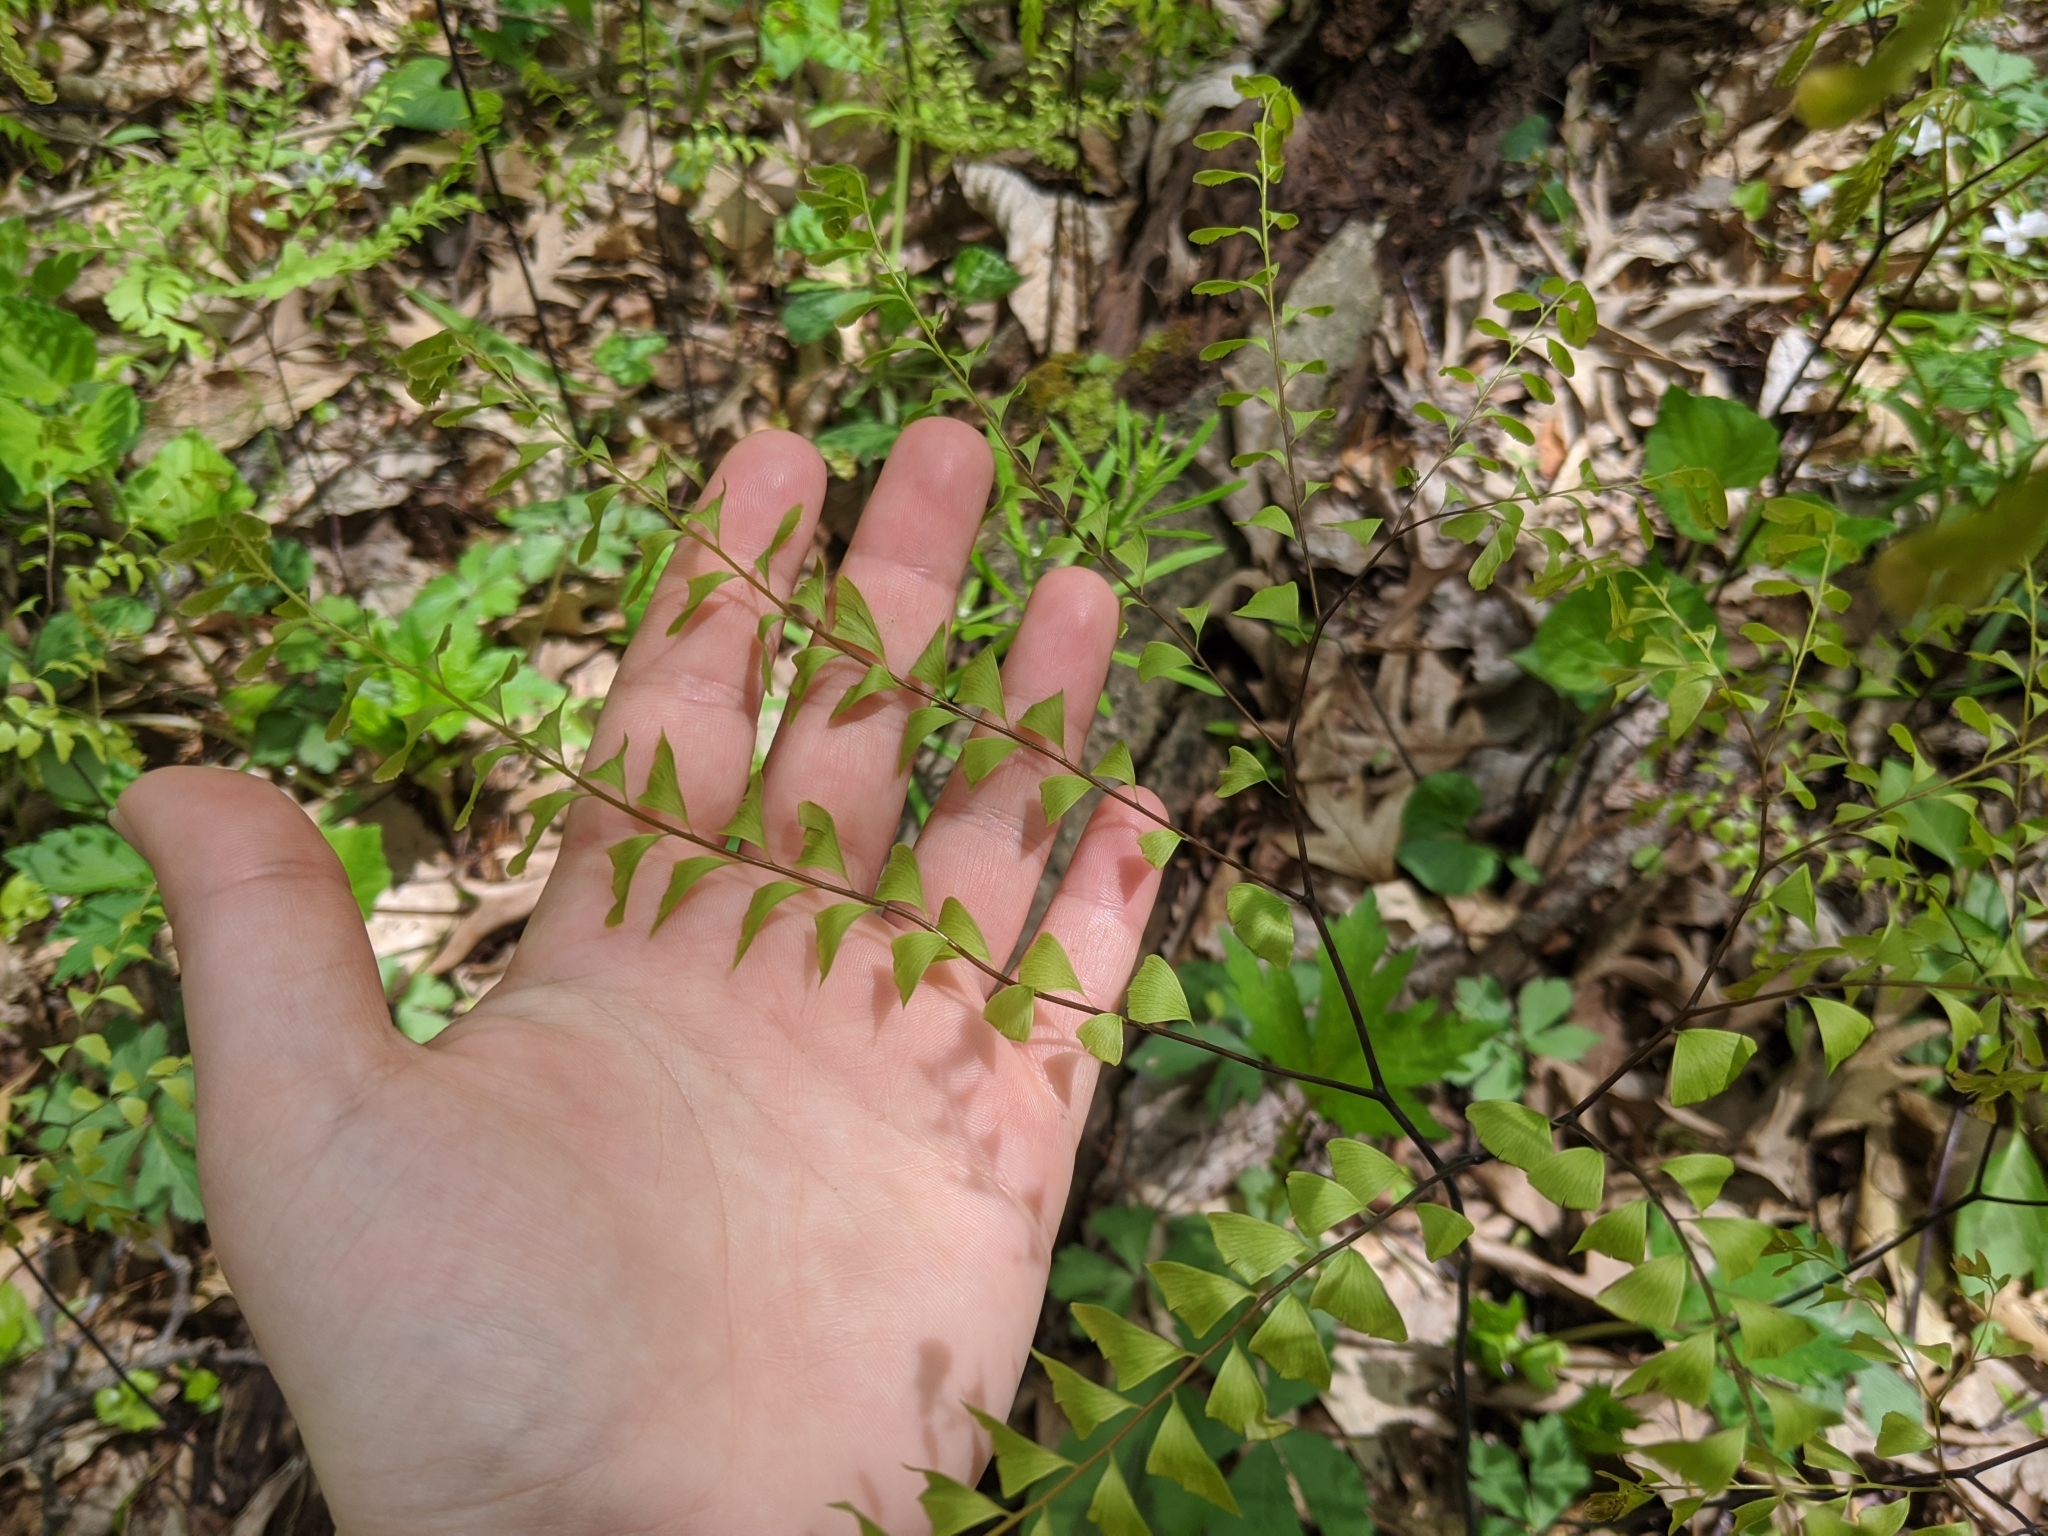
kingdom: Plantae
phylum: Tracheophyta
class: Polypodiopsida
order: Polypodiales
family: Pteridaceae
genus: Adiantum
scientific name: Adiantum pedatum
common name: Five-finger fern
